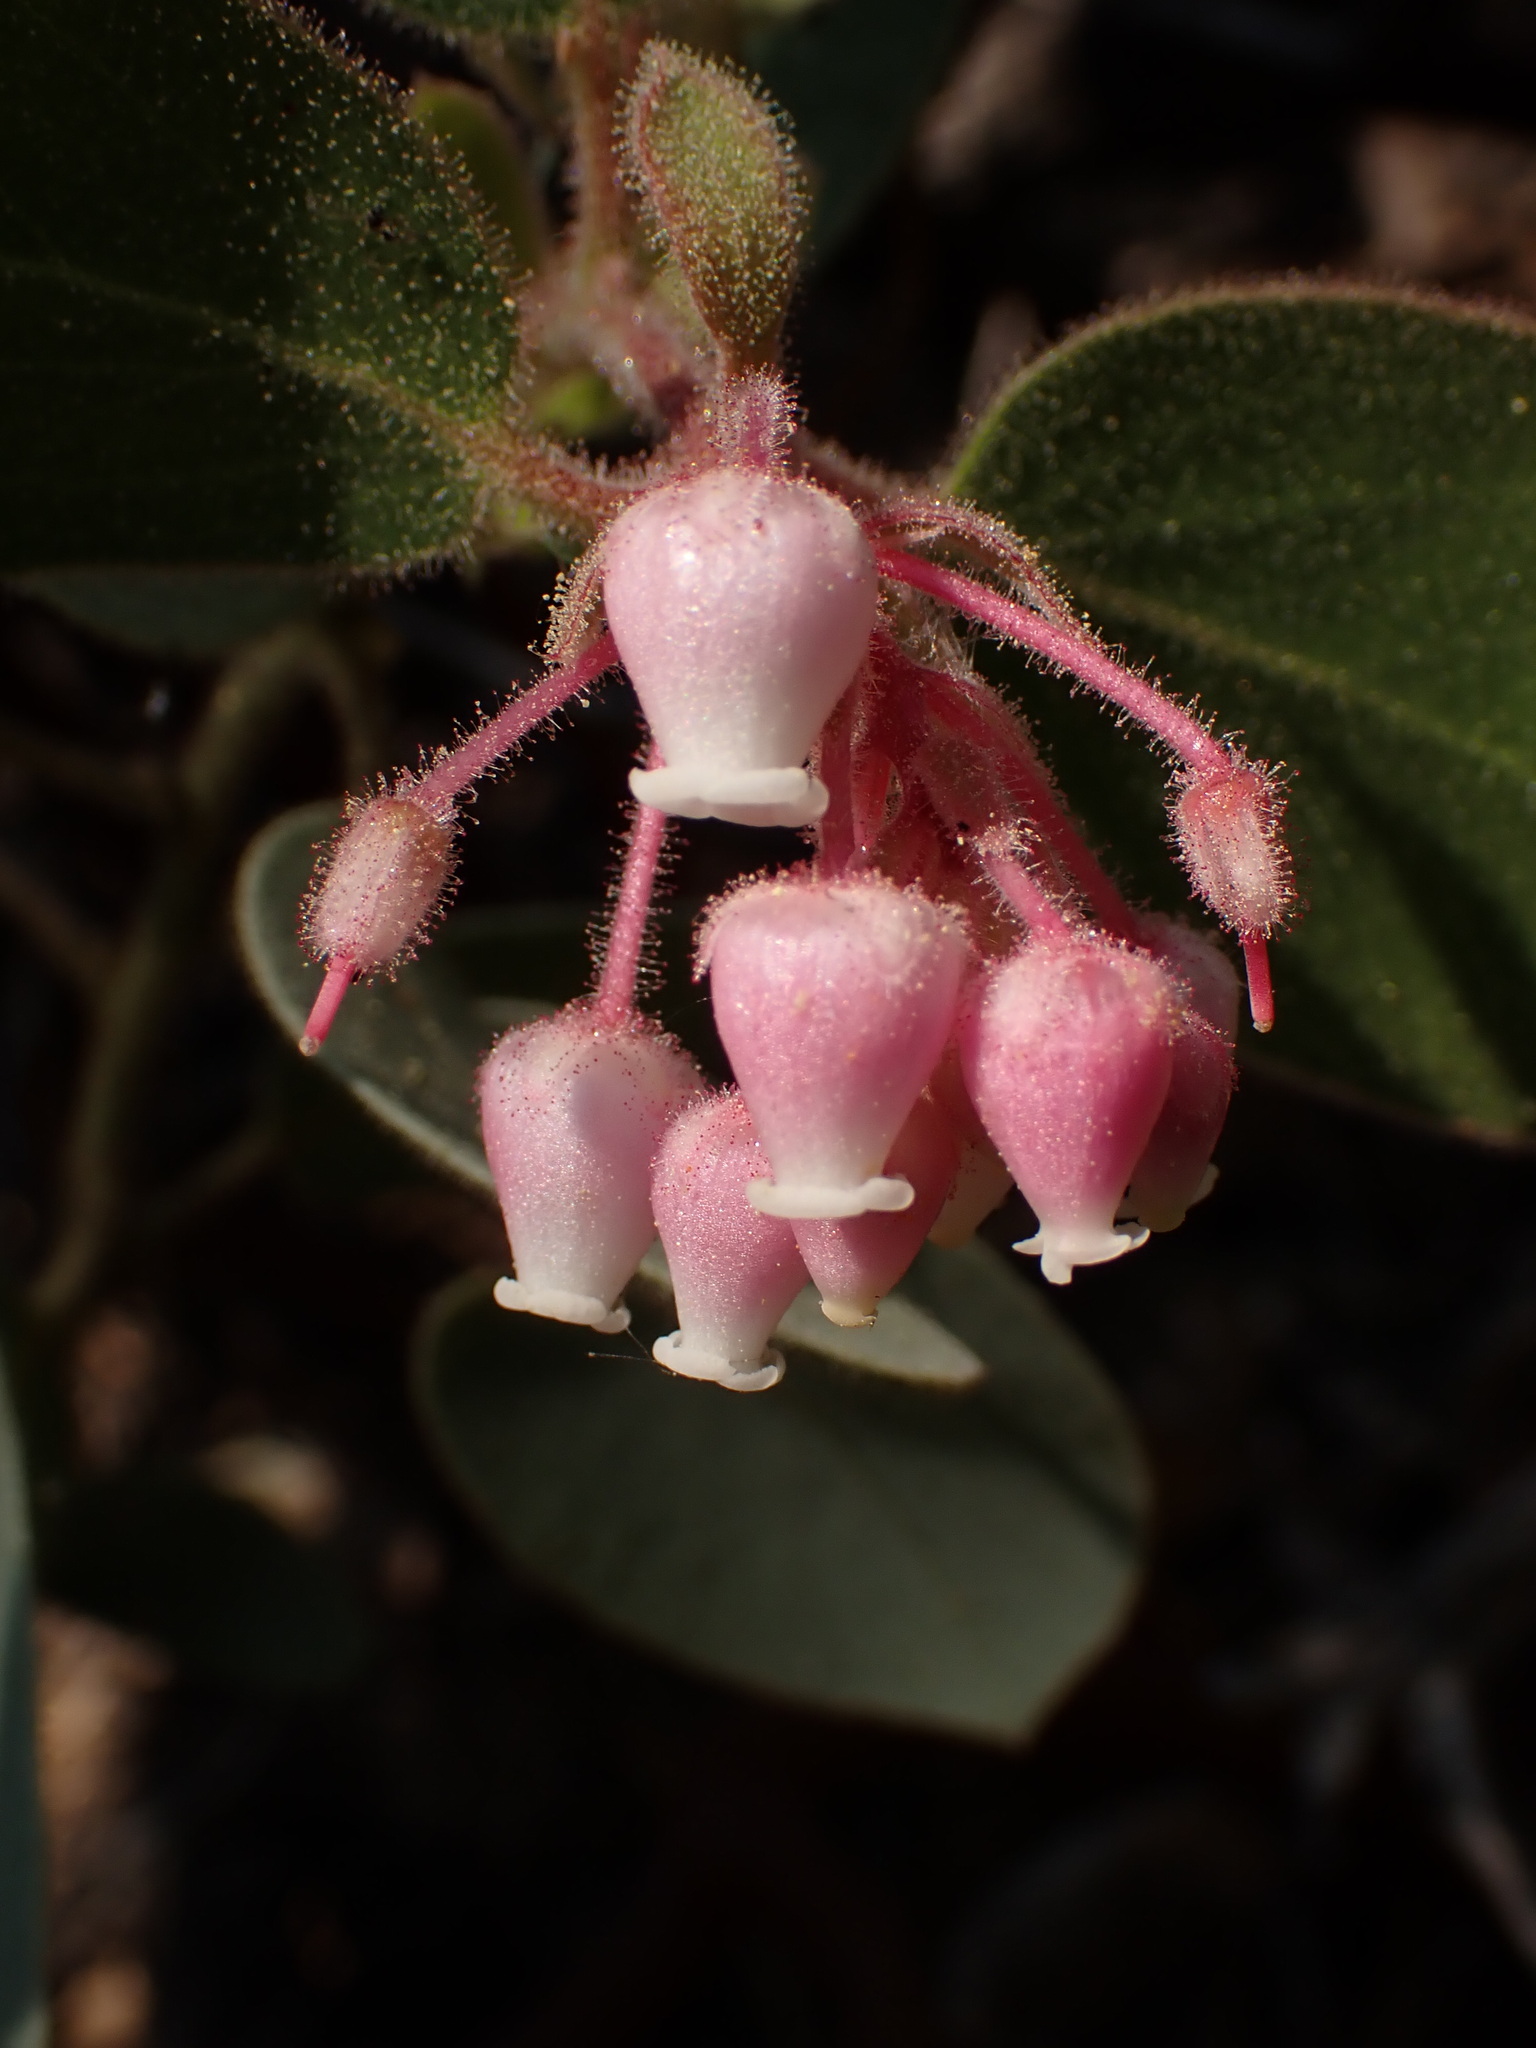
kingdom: Plantae
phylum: Tracheophyta
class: Magnoliopsida
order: Ericales
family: Ericaceae
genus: Arctostaphylos
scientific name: Arctostaphylos pringlei
